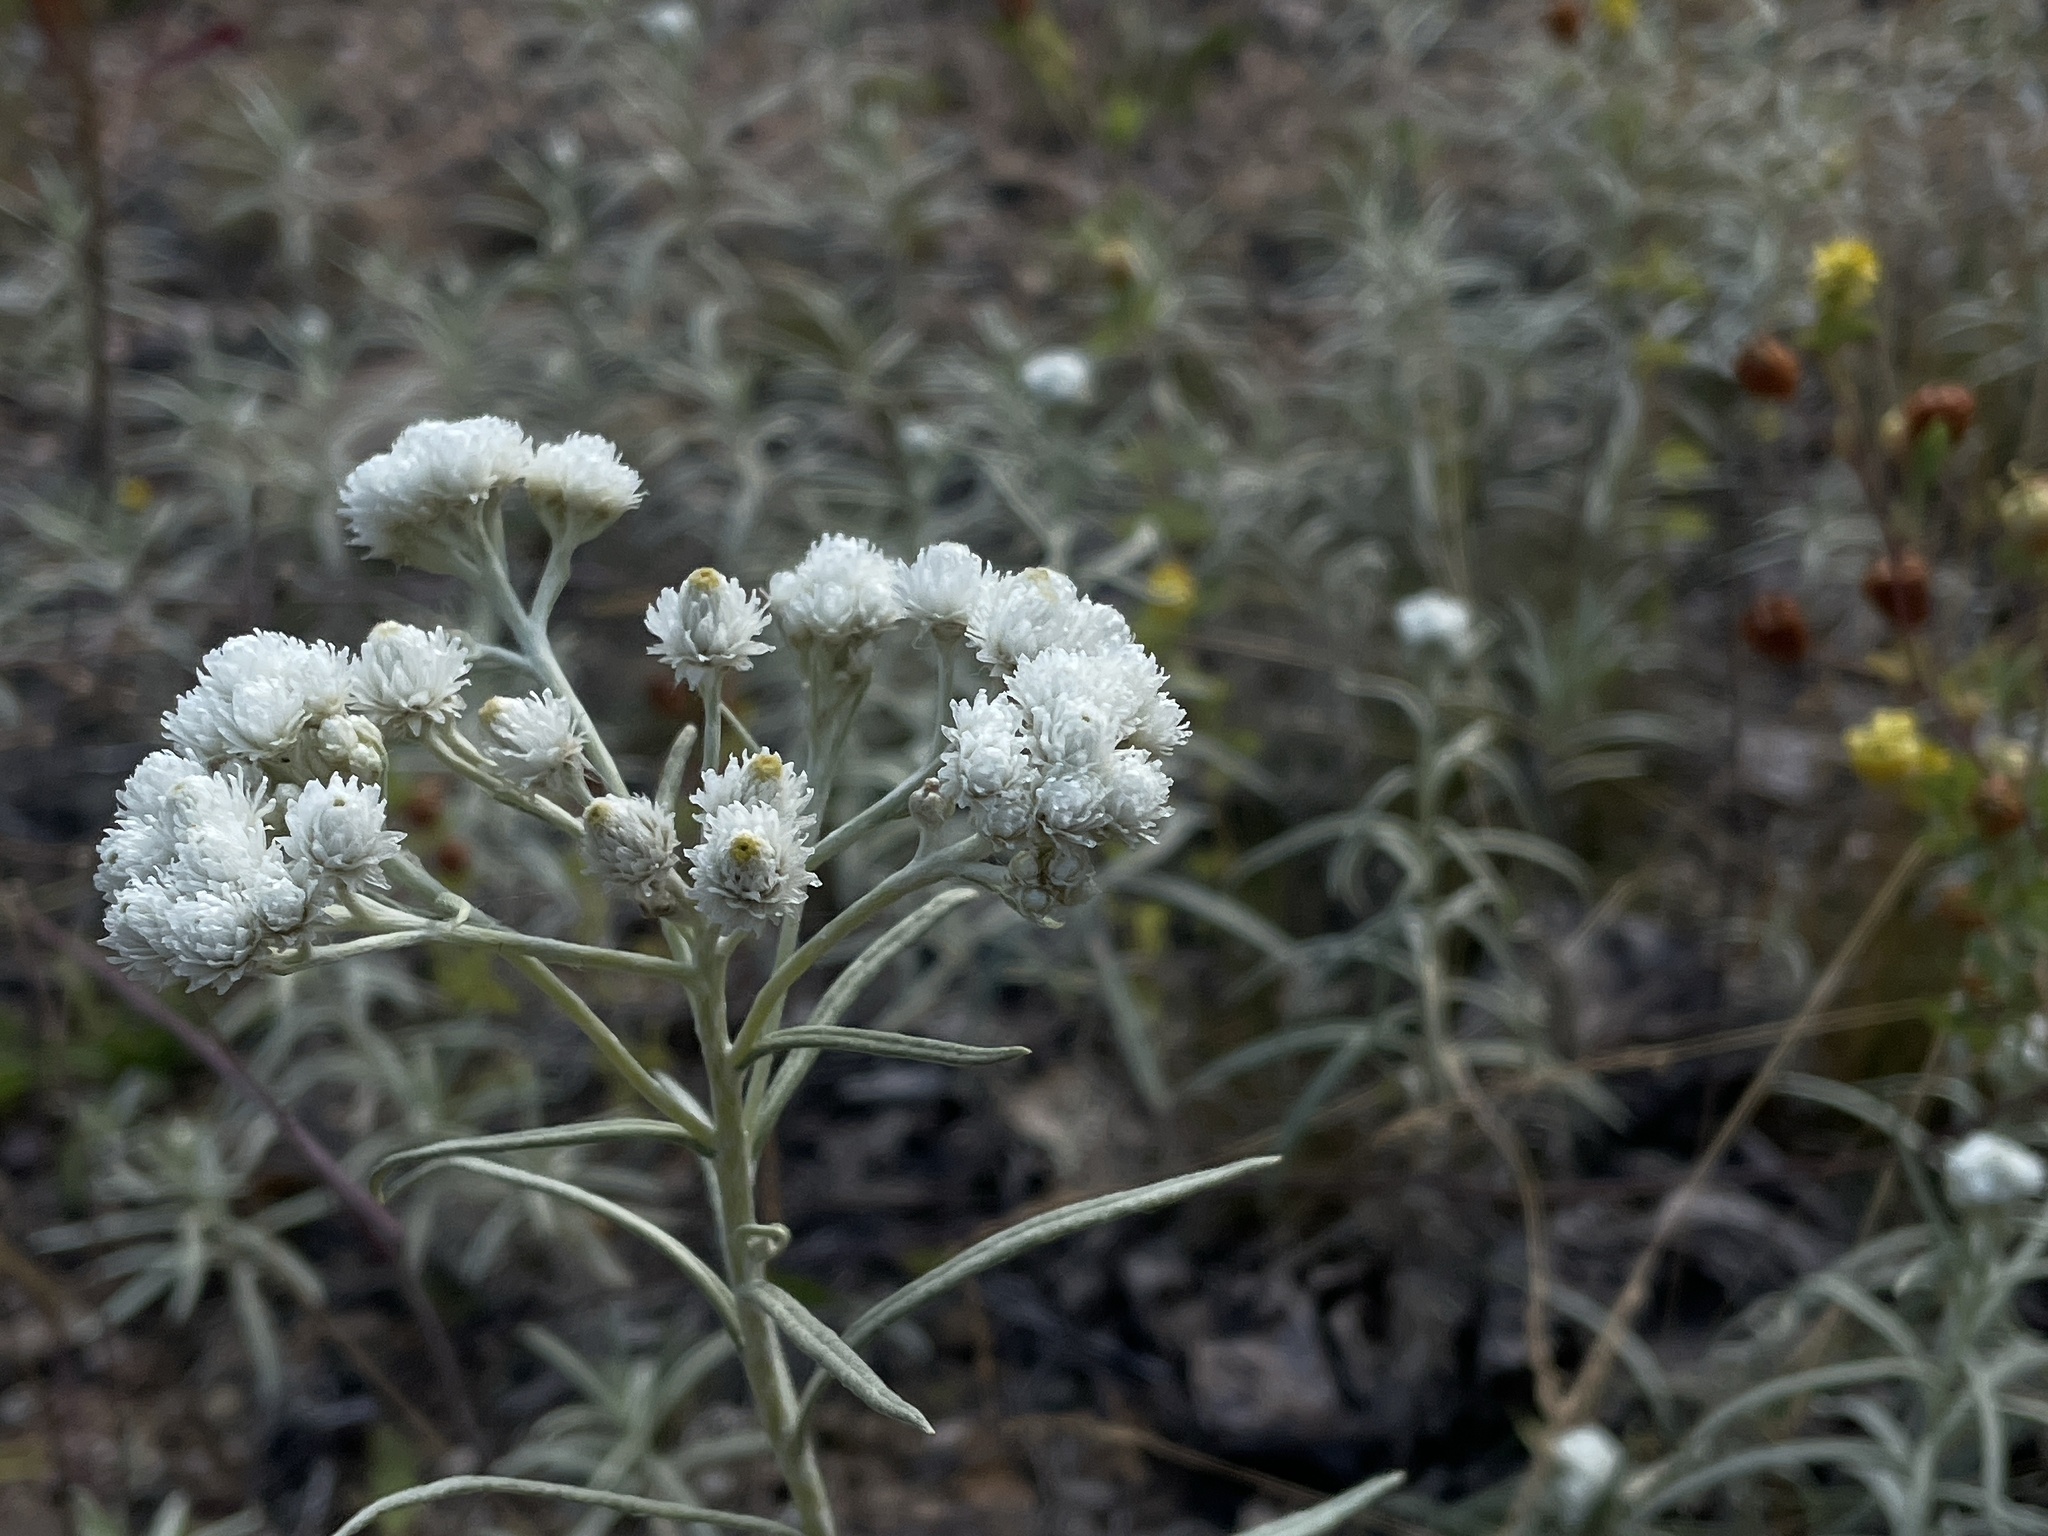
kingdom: Plantae
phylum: Tracheophyta
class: Magnoliopsida
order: Asterales
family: Asteraceae
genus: Anaphalis
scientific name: Anaphalis margaritacea
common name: Pearly everlasting
